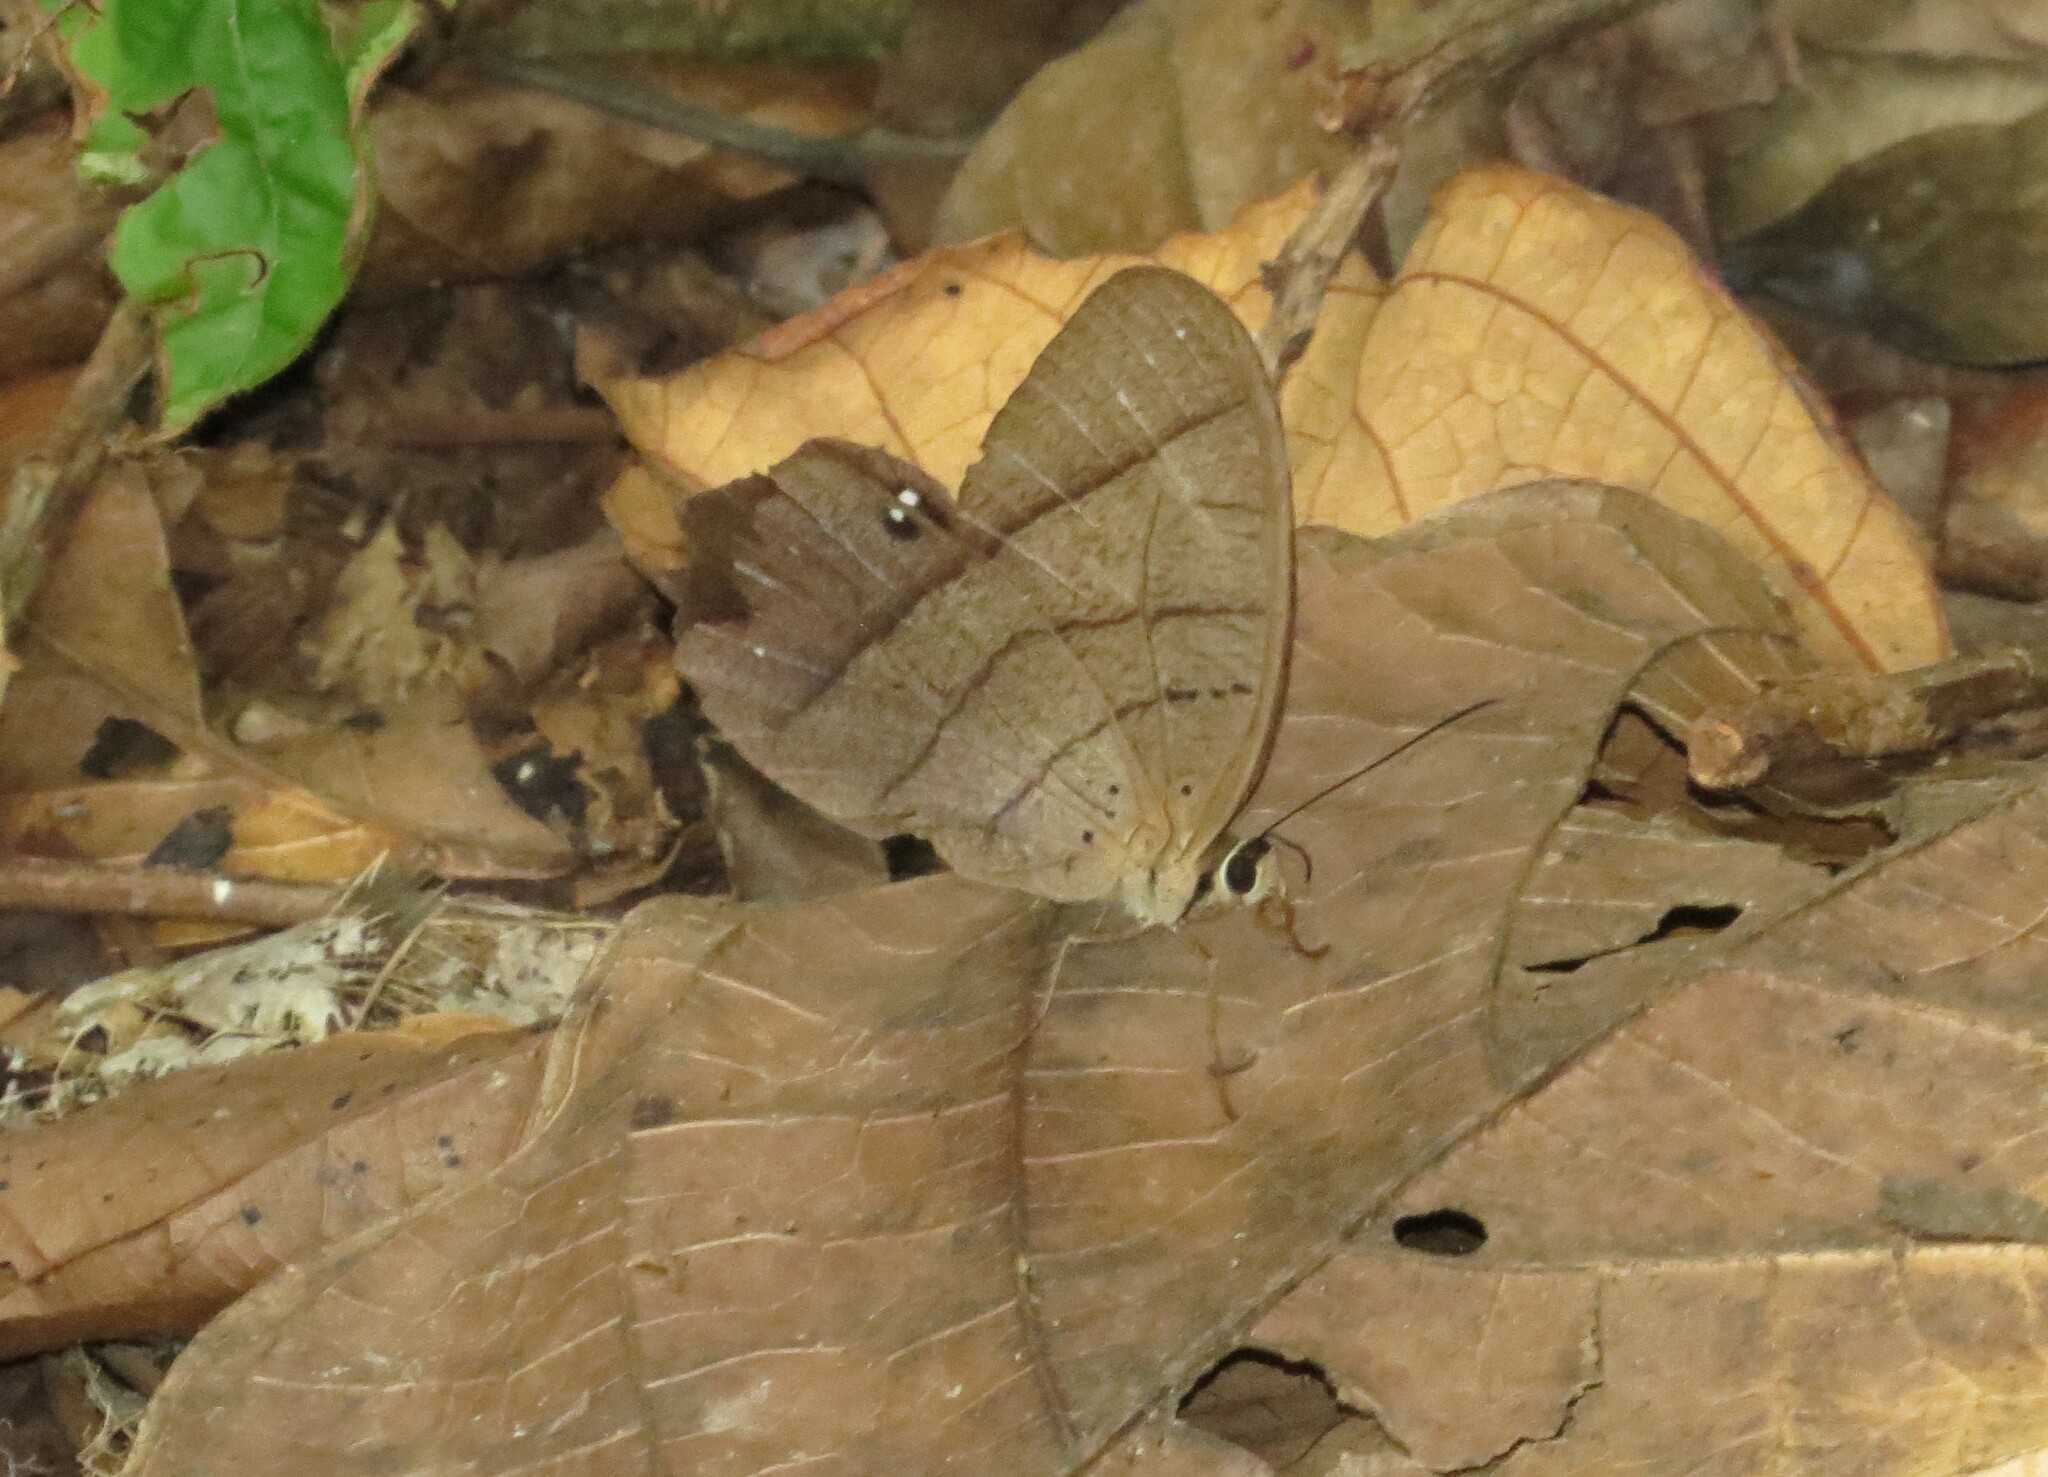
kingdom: Animalia
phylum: Arthropoda
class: Insecta
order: Lepidoptera
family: Nymphalidae
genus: Pierella
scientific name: Pierella luna
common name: Moon satyr
